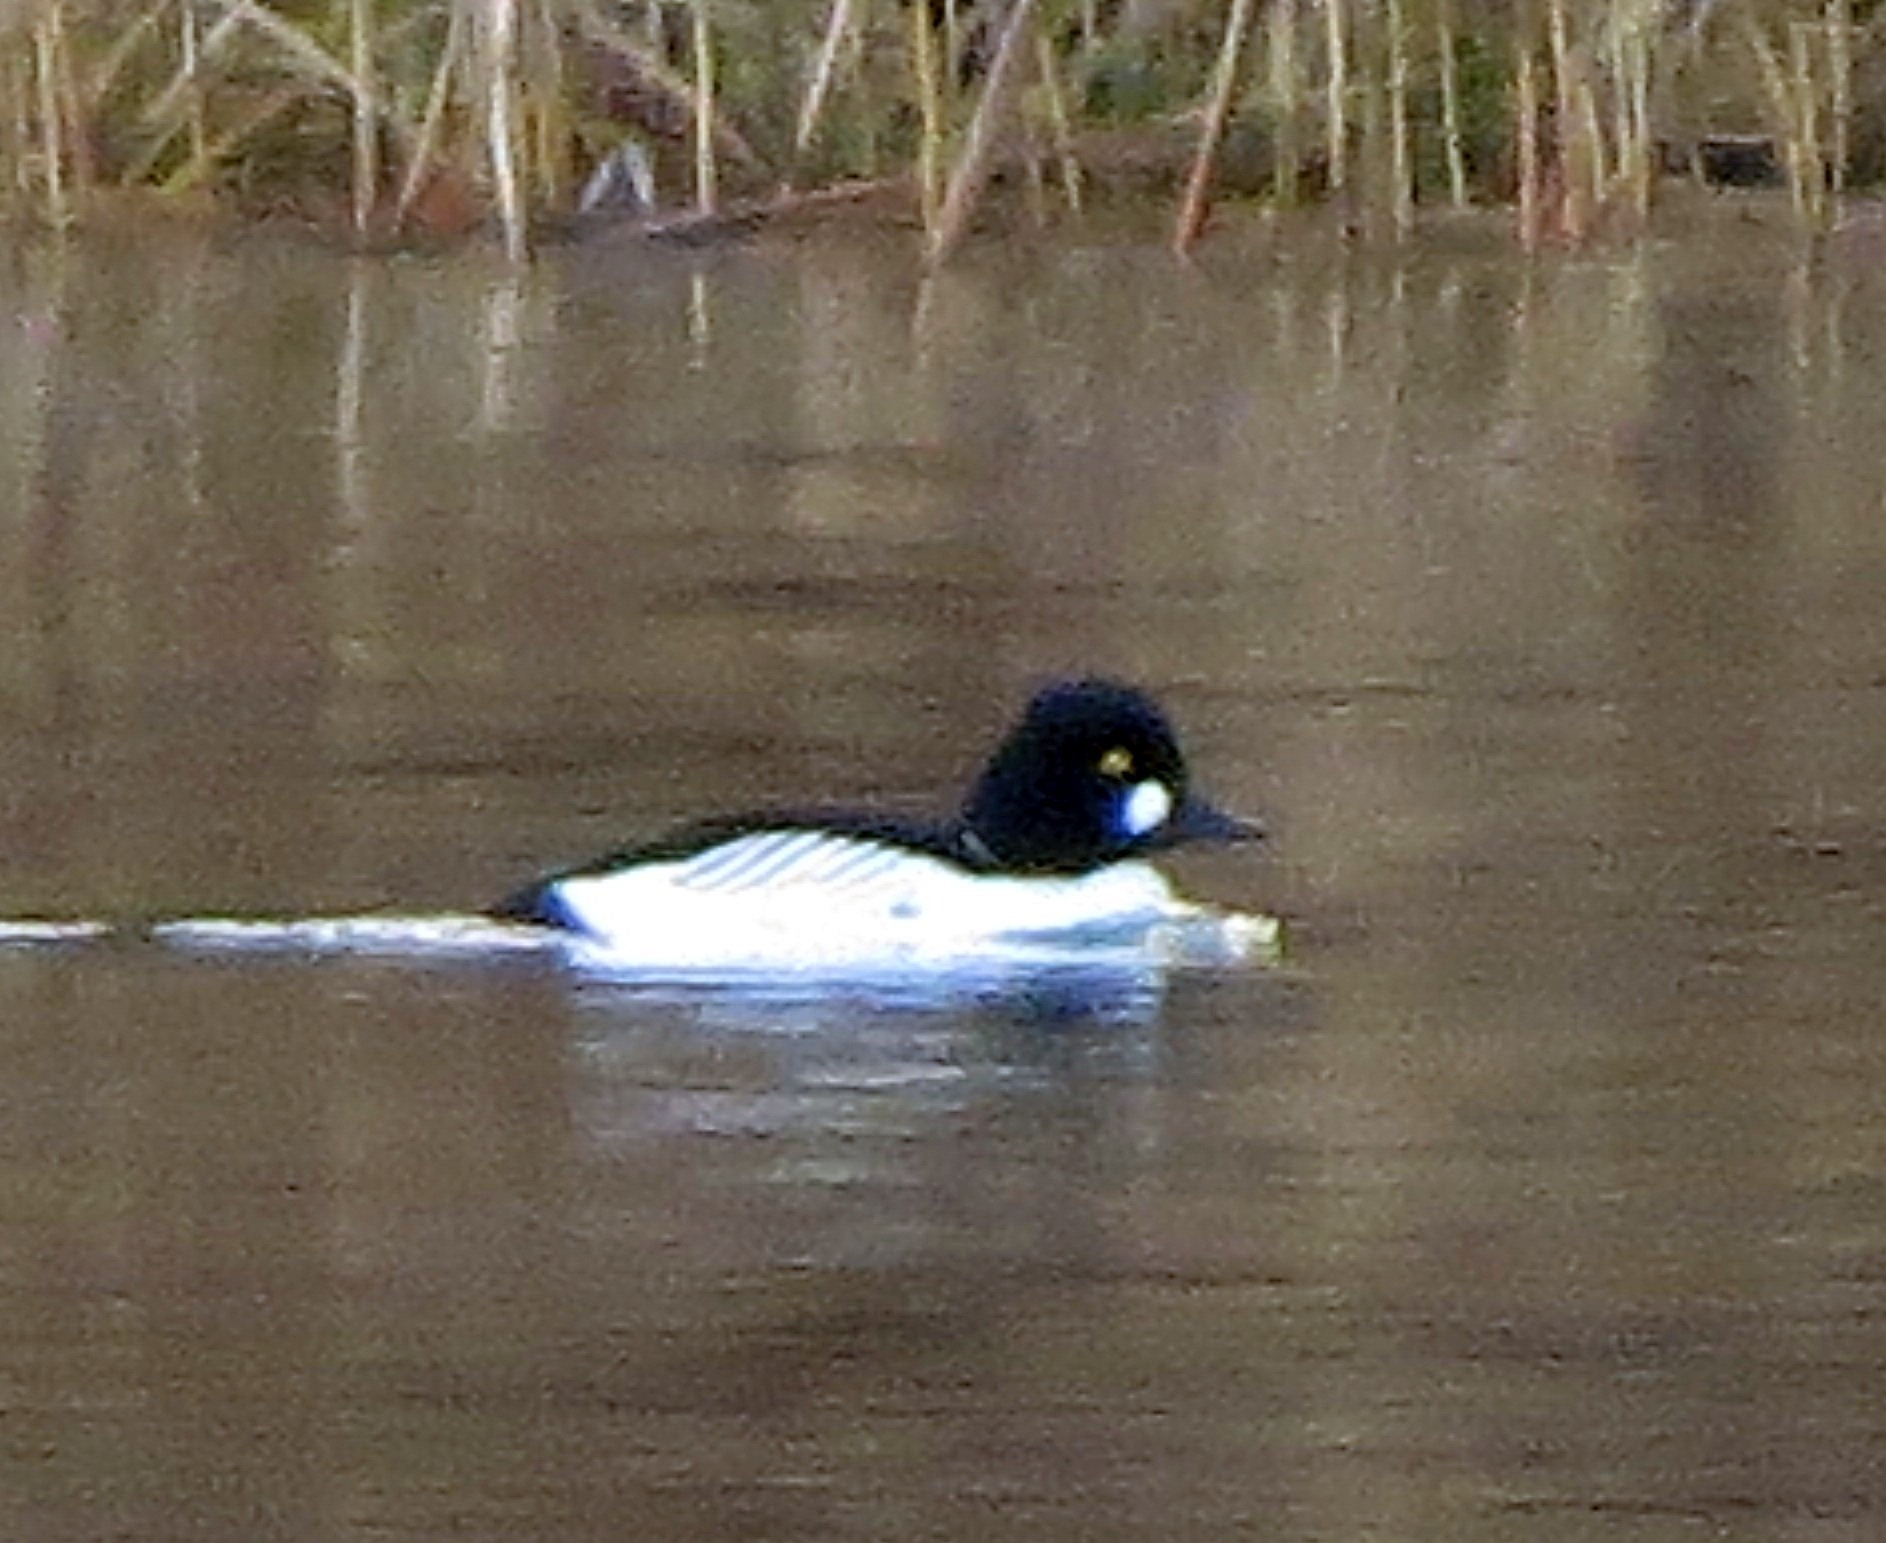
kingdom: Animalia
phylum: Chordata
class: Aves
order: Anseriformes
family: Anatidae
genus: Bucephala
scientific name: Bucephala clangula
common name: Common goldeneye
